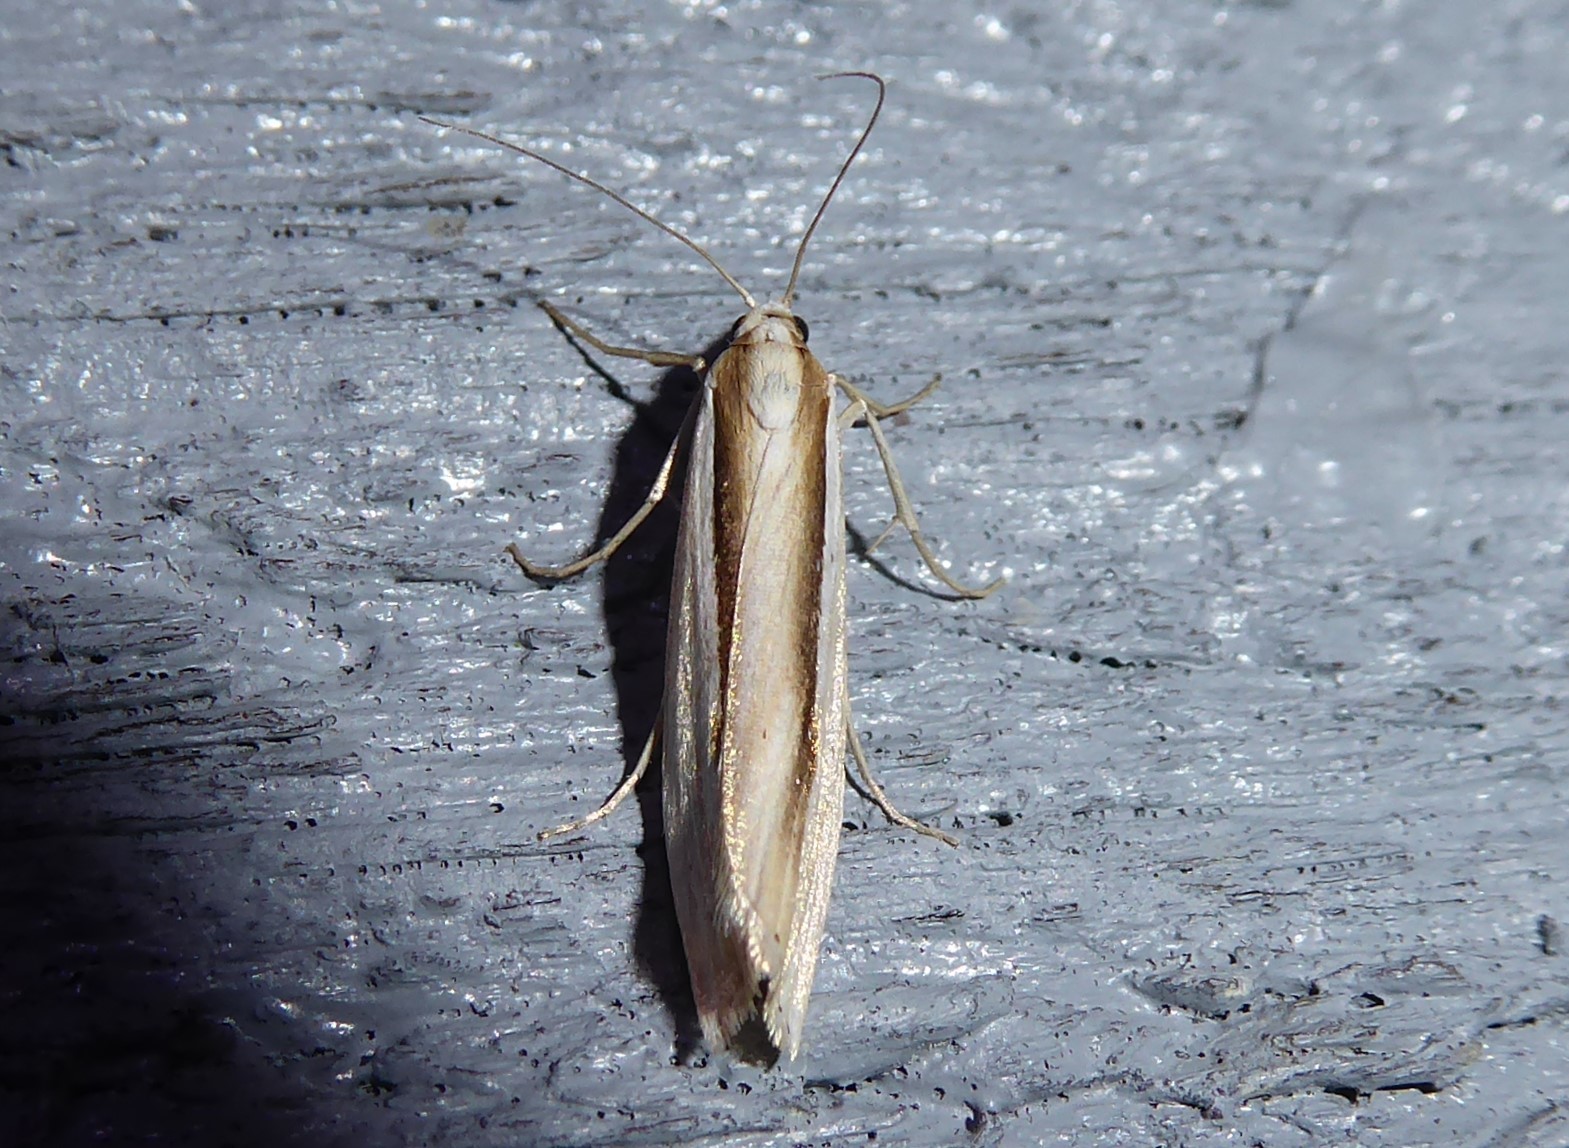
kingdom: Animalia
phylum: Arthropoda
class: Insecta
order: Lepidoptera
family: Crambidae
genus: Orocrambus
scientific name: Orocrambus ramosellus
